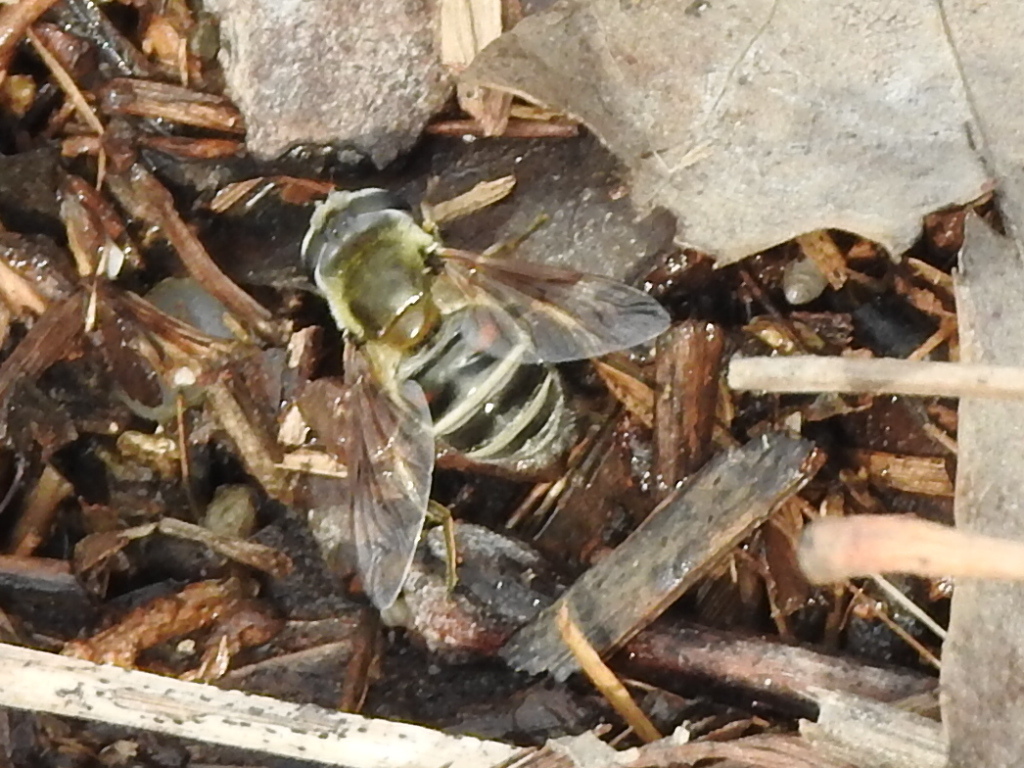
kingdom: Animalia
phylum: Arthropoda
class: Insecta
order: Diptera
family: Syrphidae
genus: Eristalis
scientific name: Eristalis stipator
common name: Yellow-shouldered drone fly
